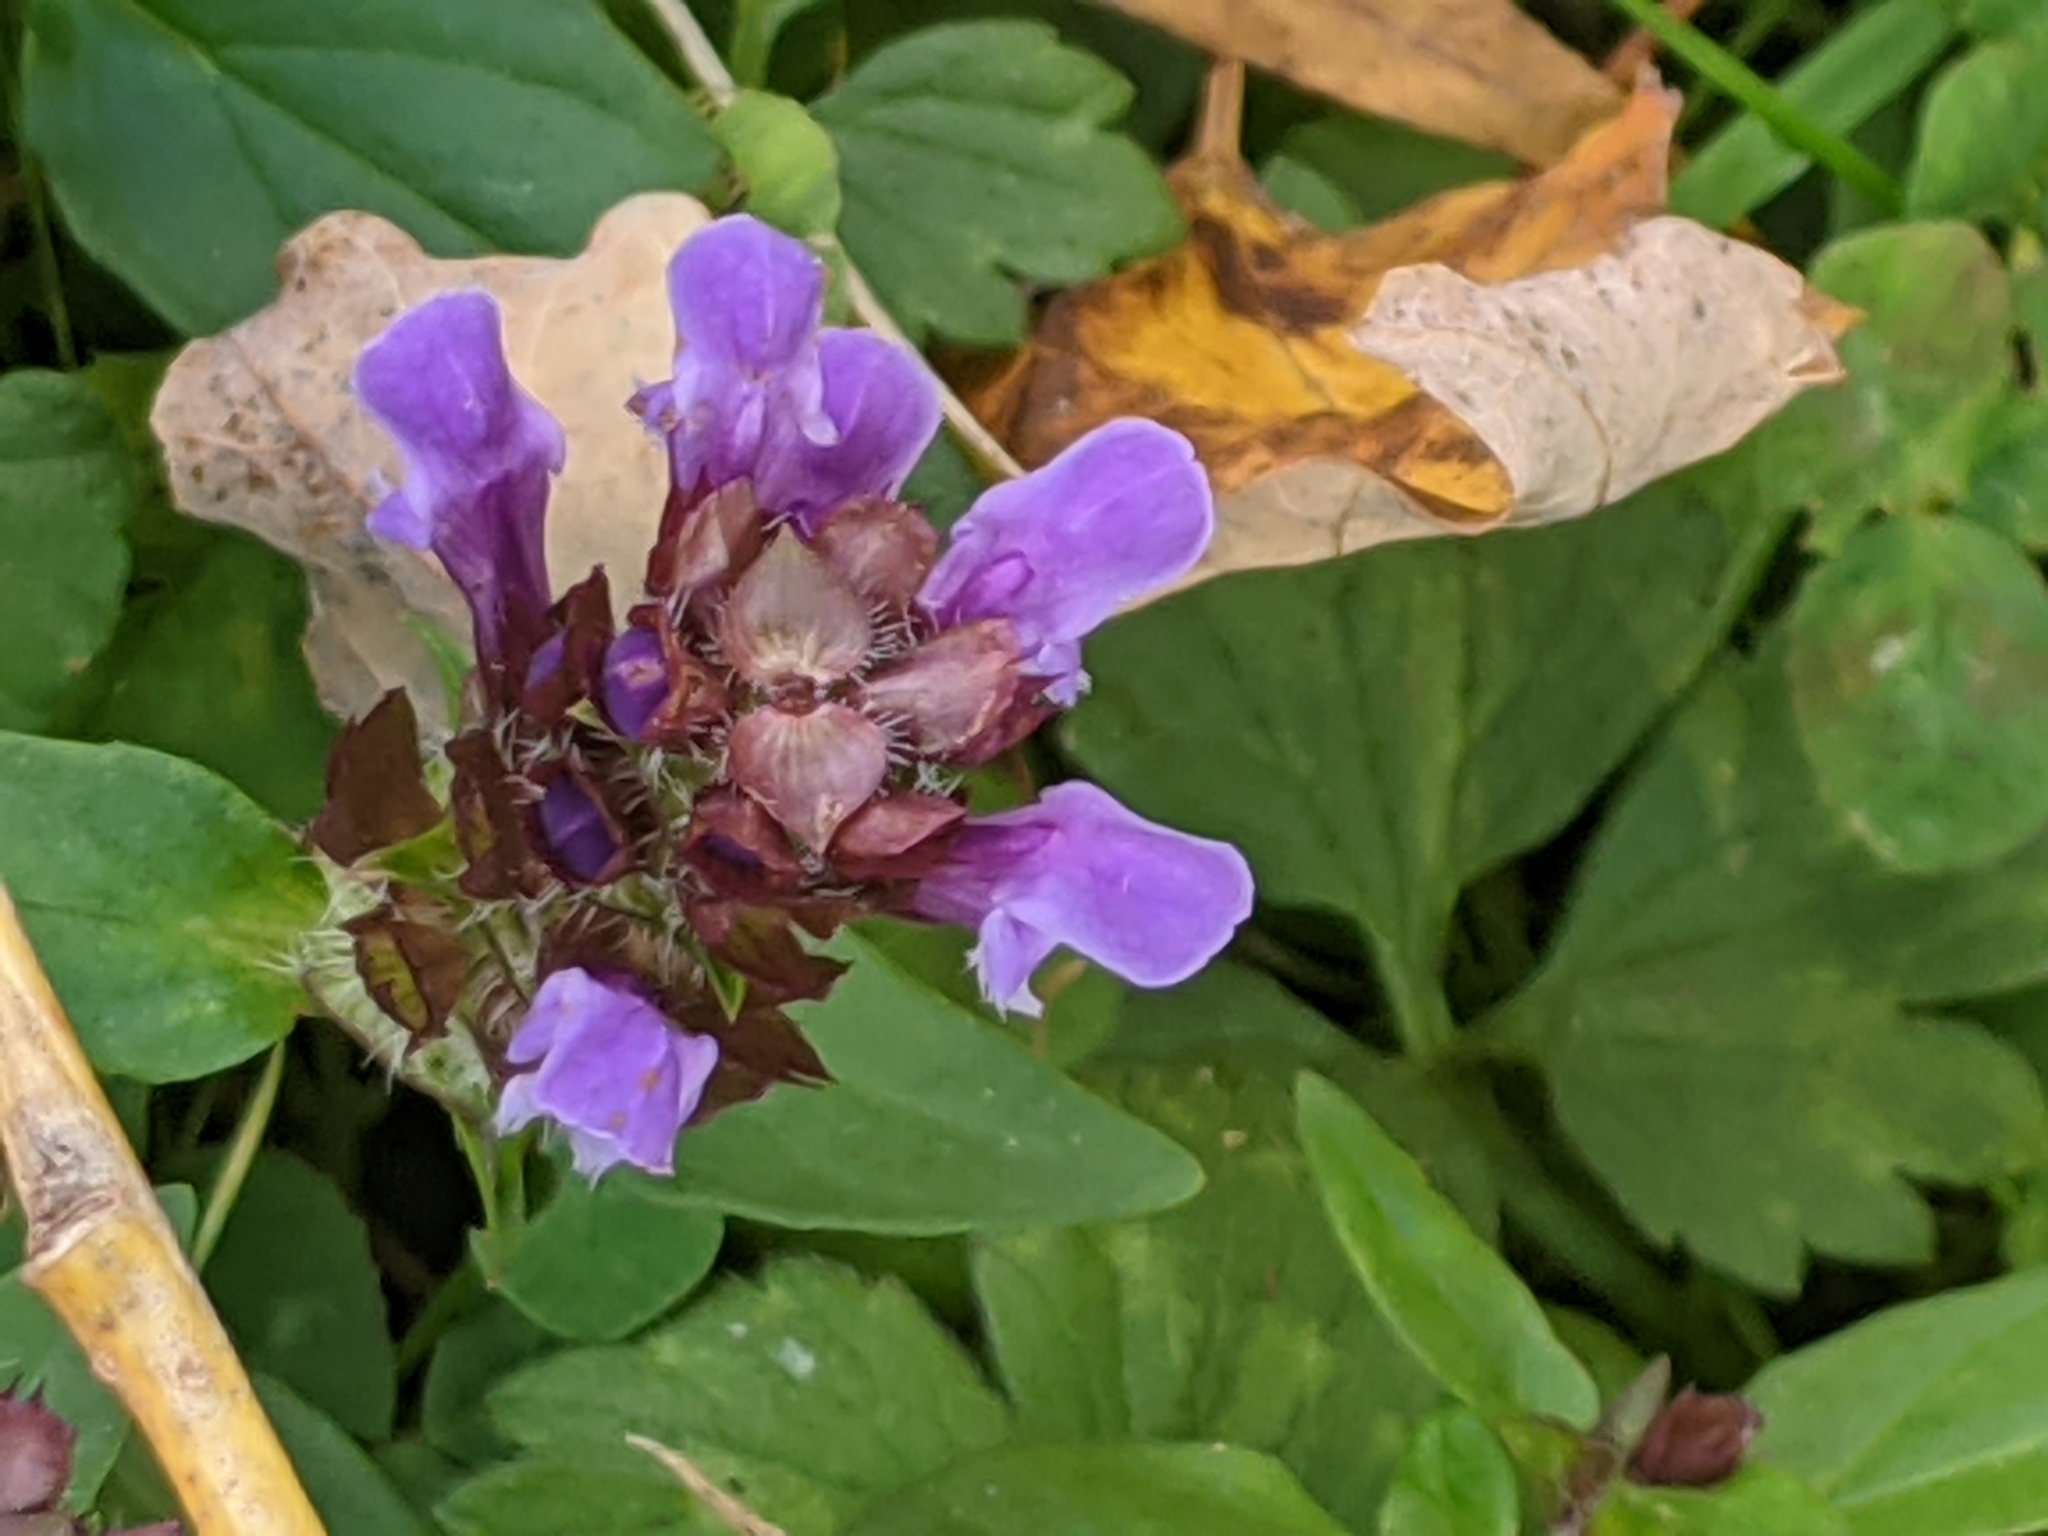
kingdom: Plantae
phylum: Tracheophyta
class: Magnoliopsida
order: Lamiales
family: Lamiaceae
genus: Prunella
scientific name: Prunella vulgaris
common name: Heal-all
